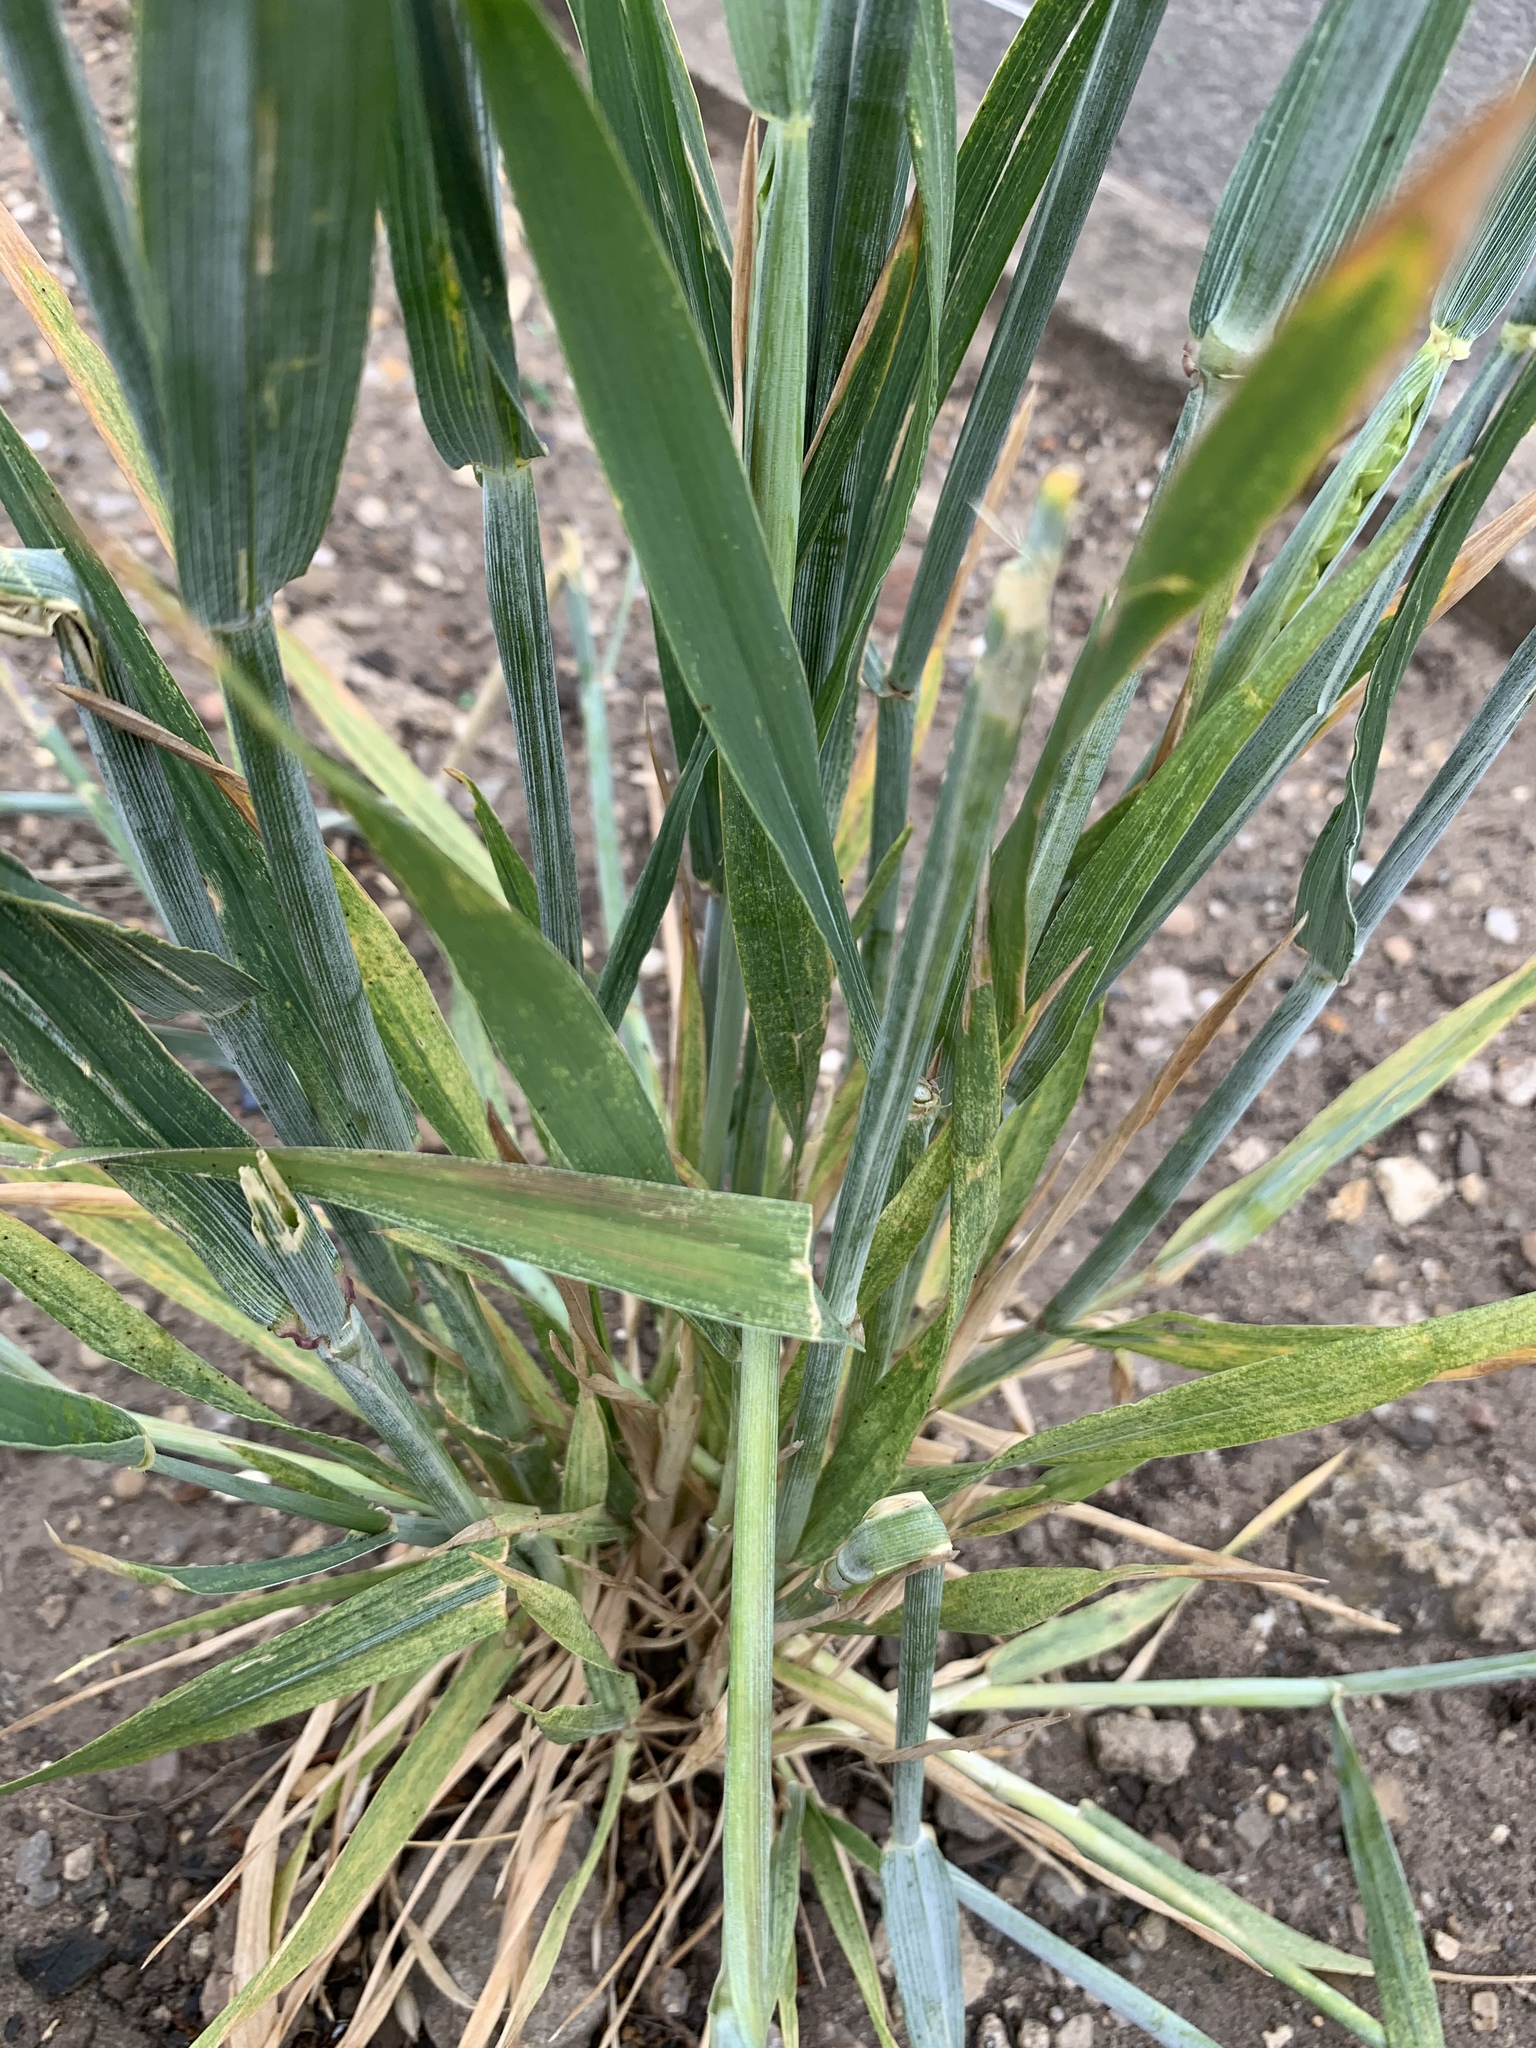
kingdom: Plantae
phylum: Tracheophyta
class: Liliopsida
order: Poales
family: Poaceae
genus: Triticum
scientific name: Triticum aestivum
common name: Common wheat
